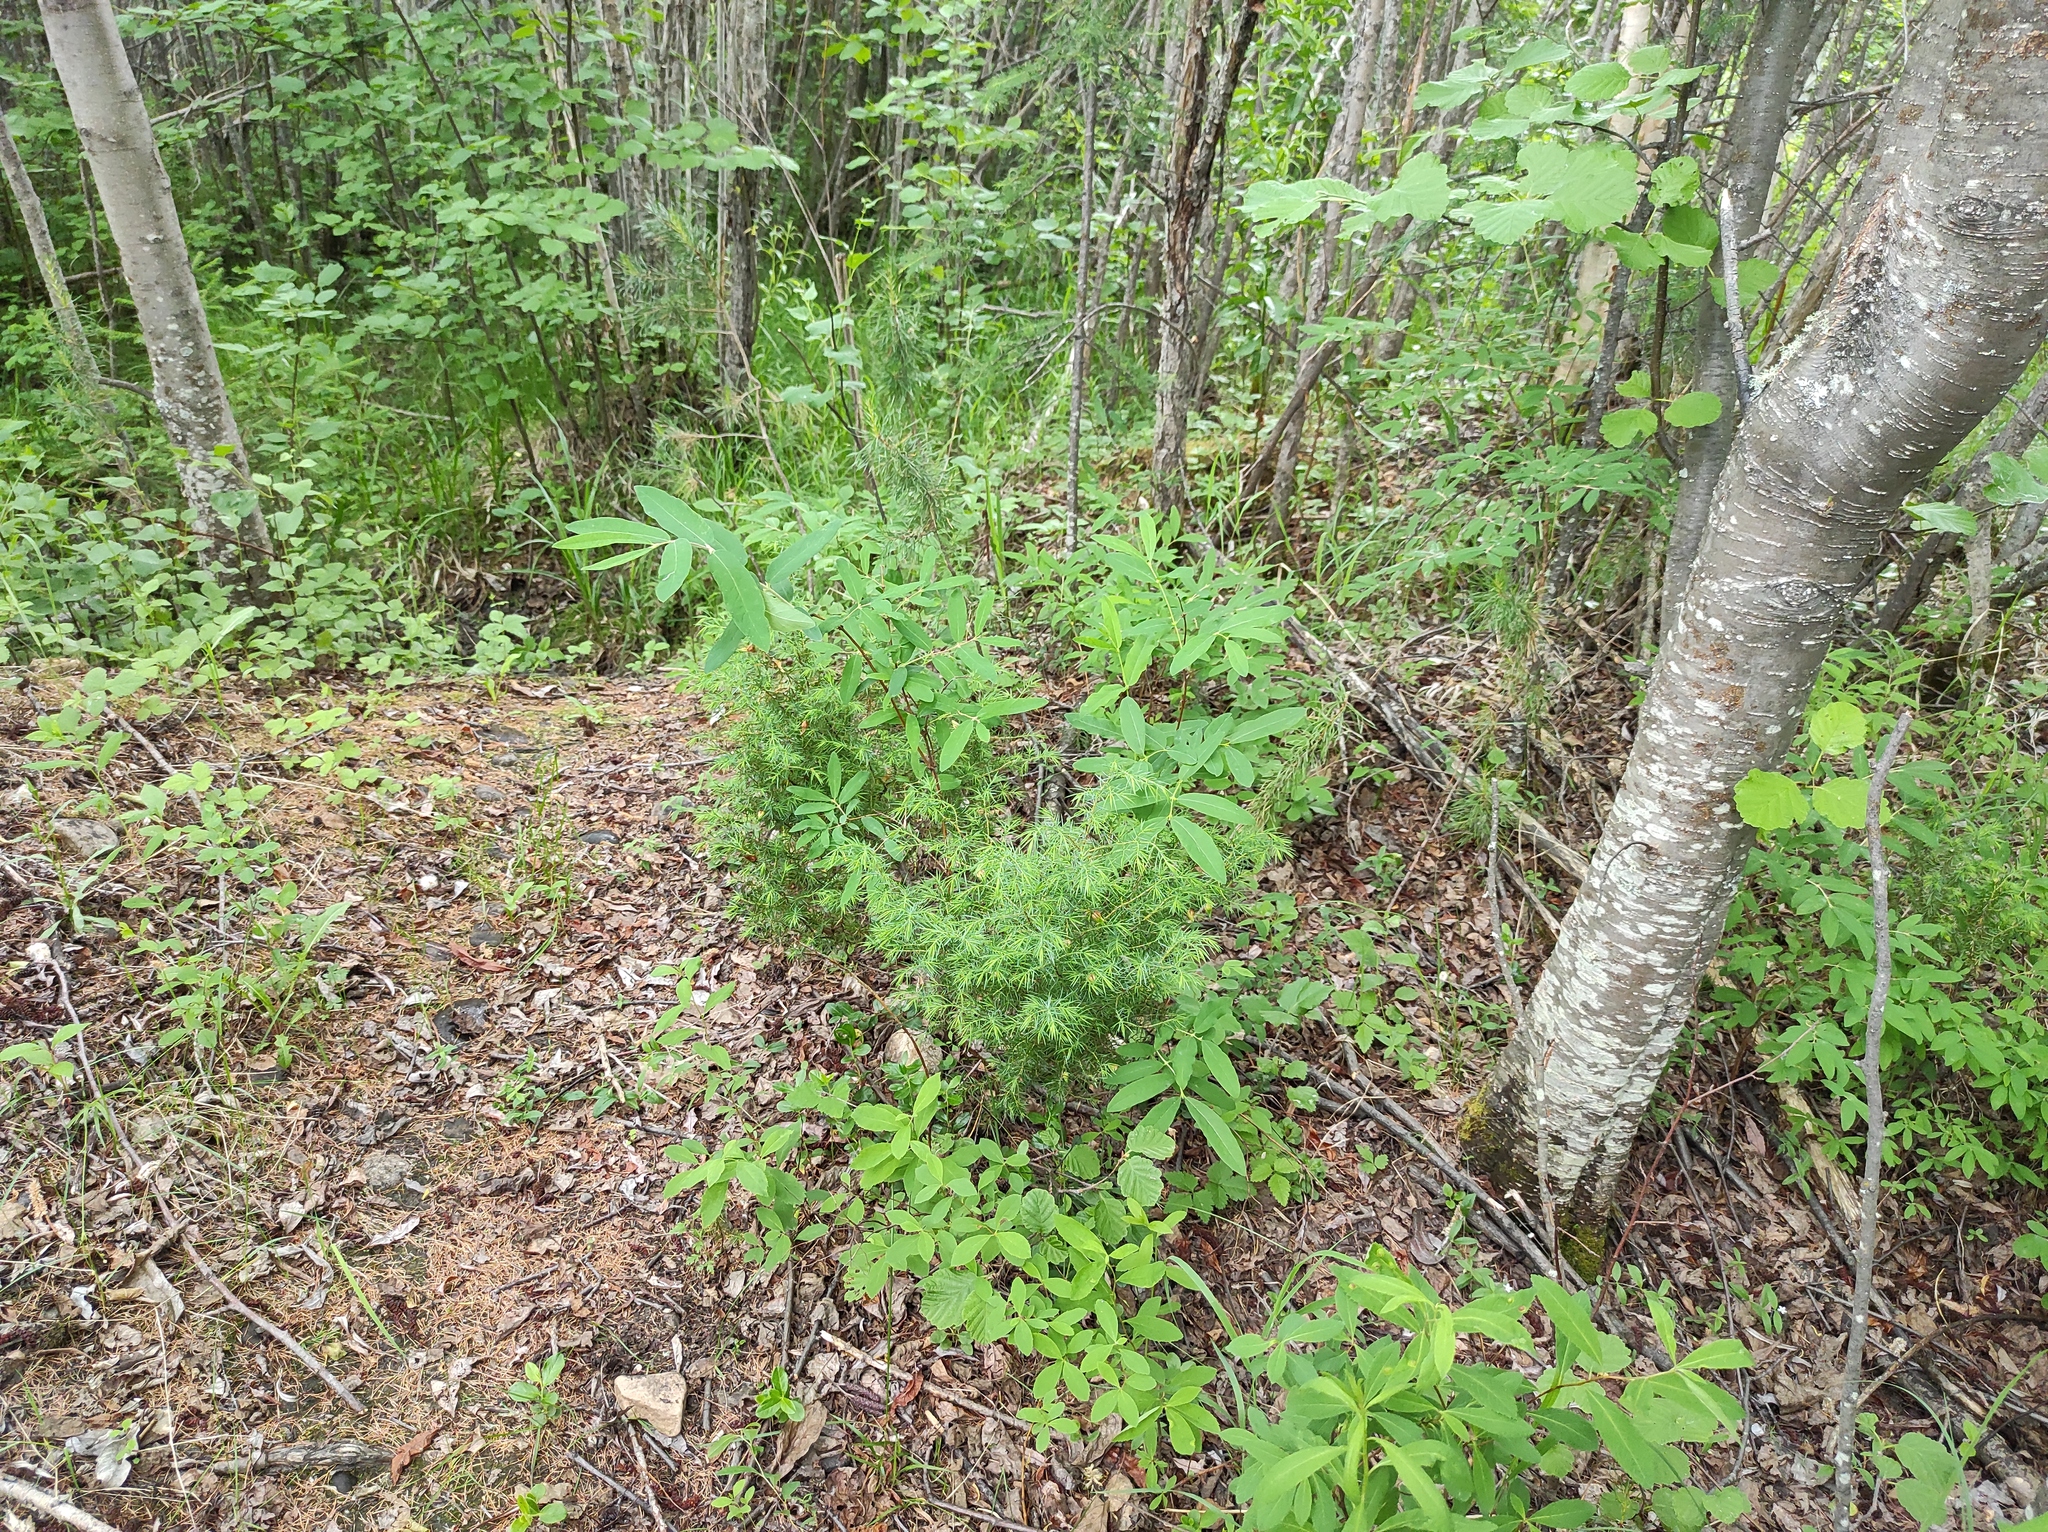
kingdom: Plantae
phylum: Tracheophyta
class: Pinopsida
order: Pinales
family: Cupressaceae
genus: Juniperus
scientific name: Juniperus communis
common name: Common juniper
